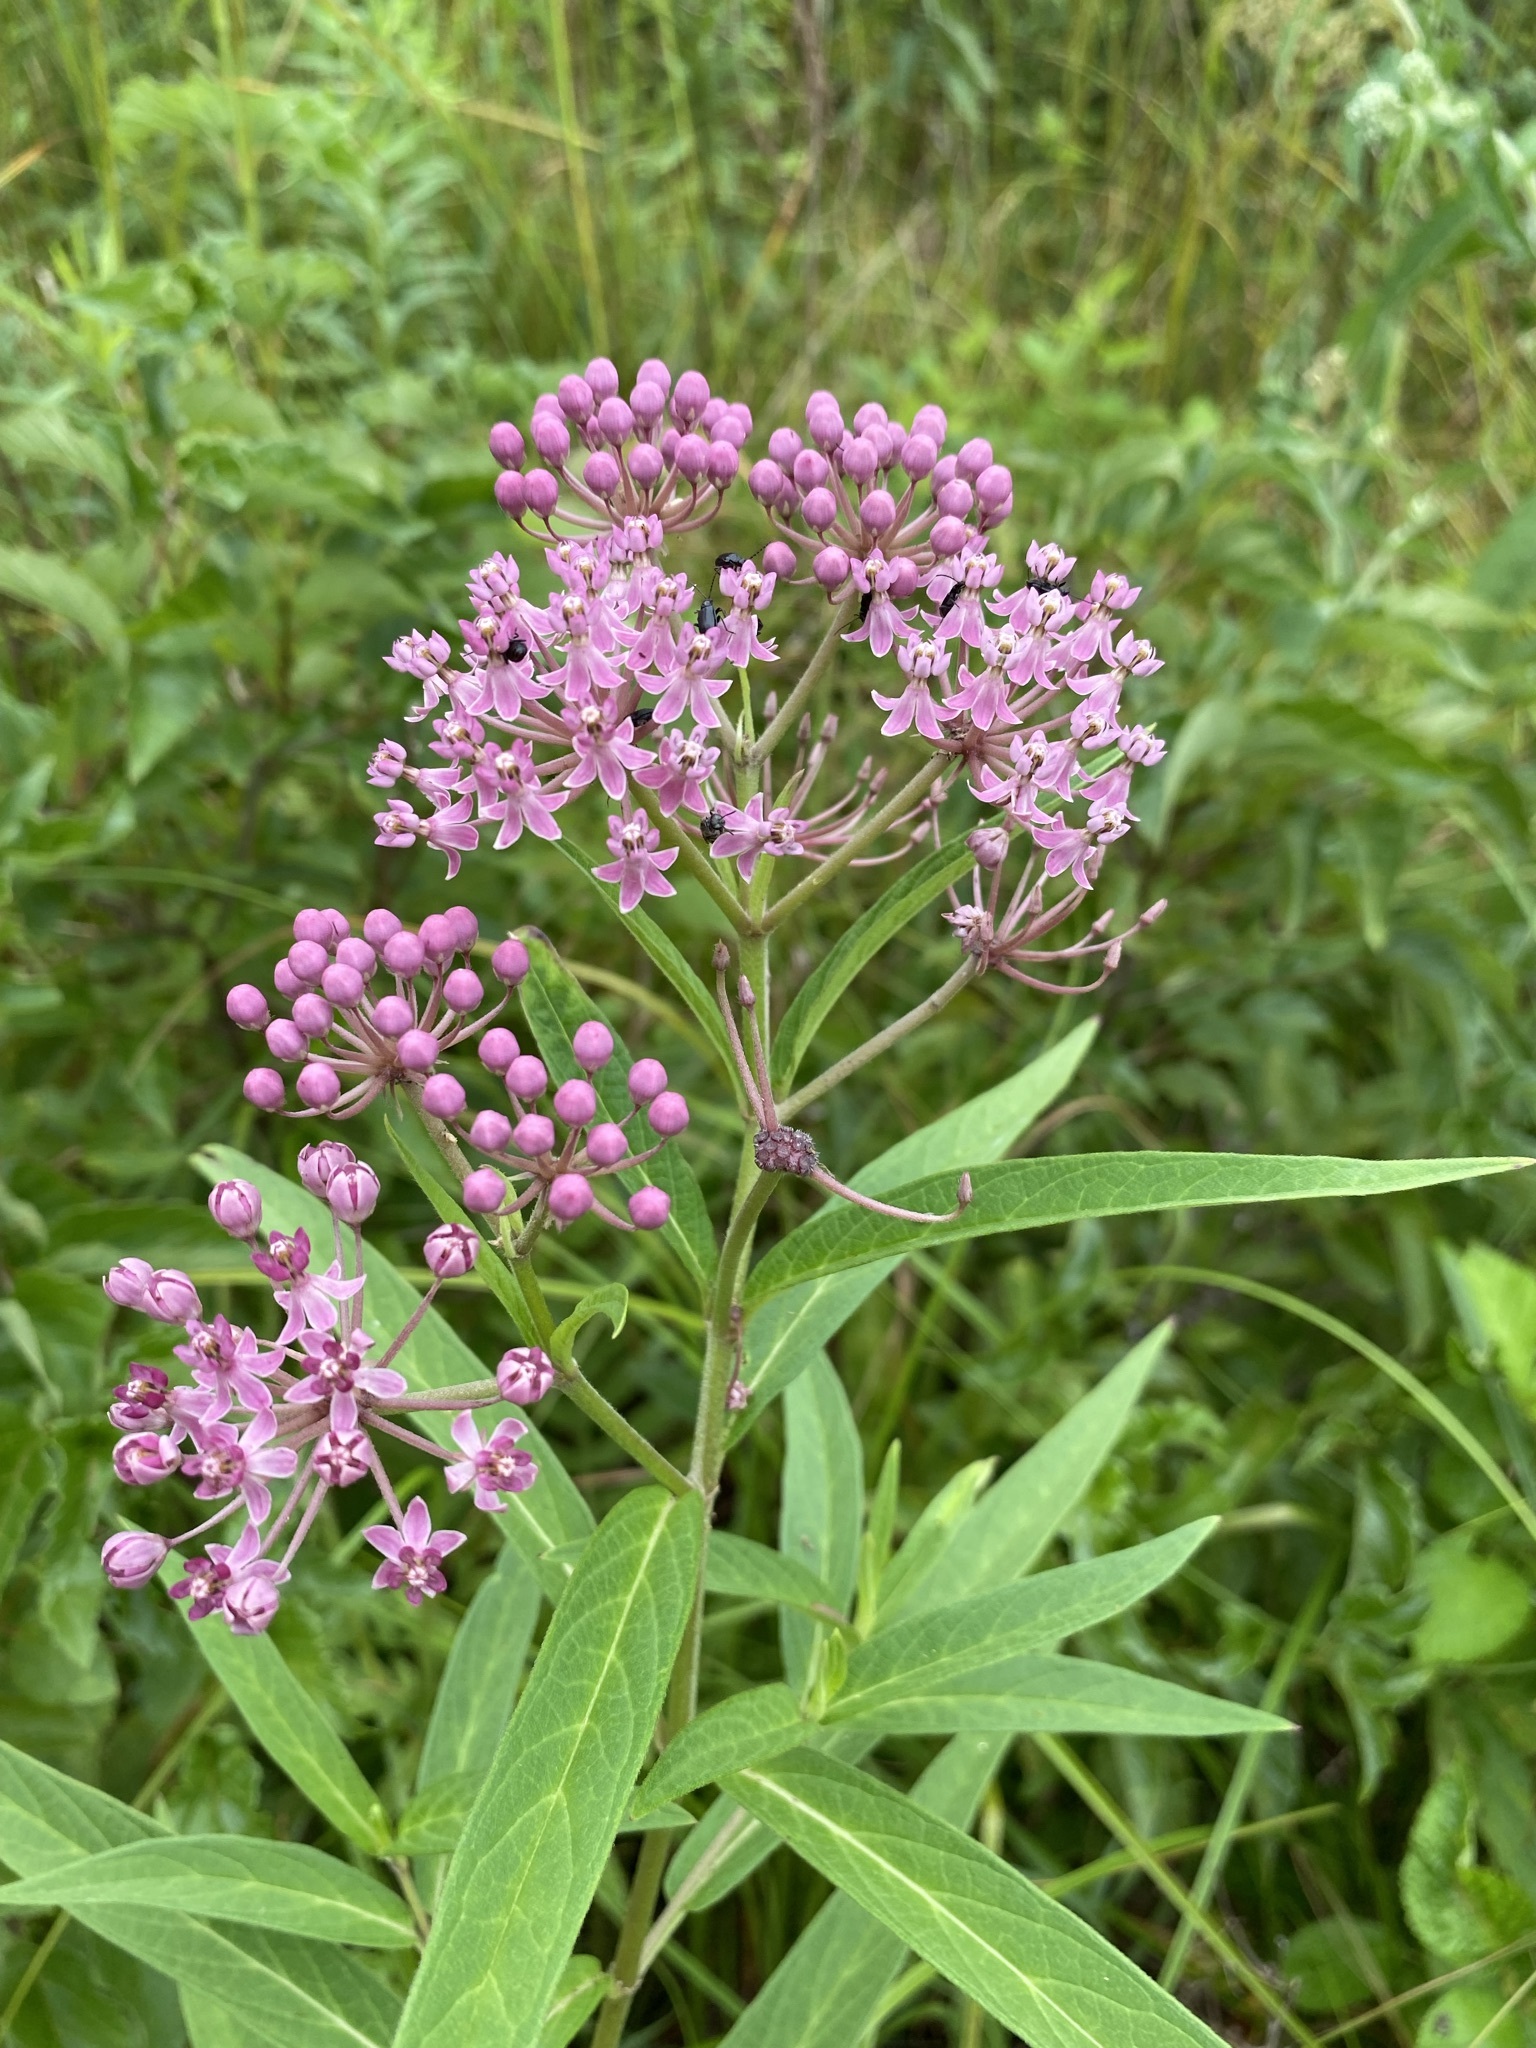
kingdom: Plantae
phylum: Tracheophyta
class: Magnoliopsida
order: Gentianales
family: Apocynaceae
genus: Asclepias
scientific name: Asclepias incarnata
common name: Swamp milkweed
